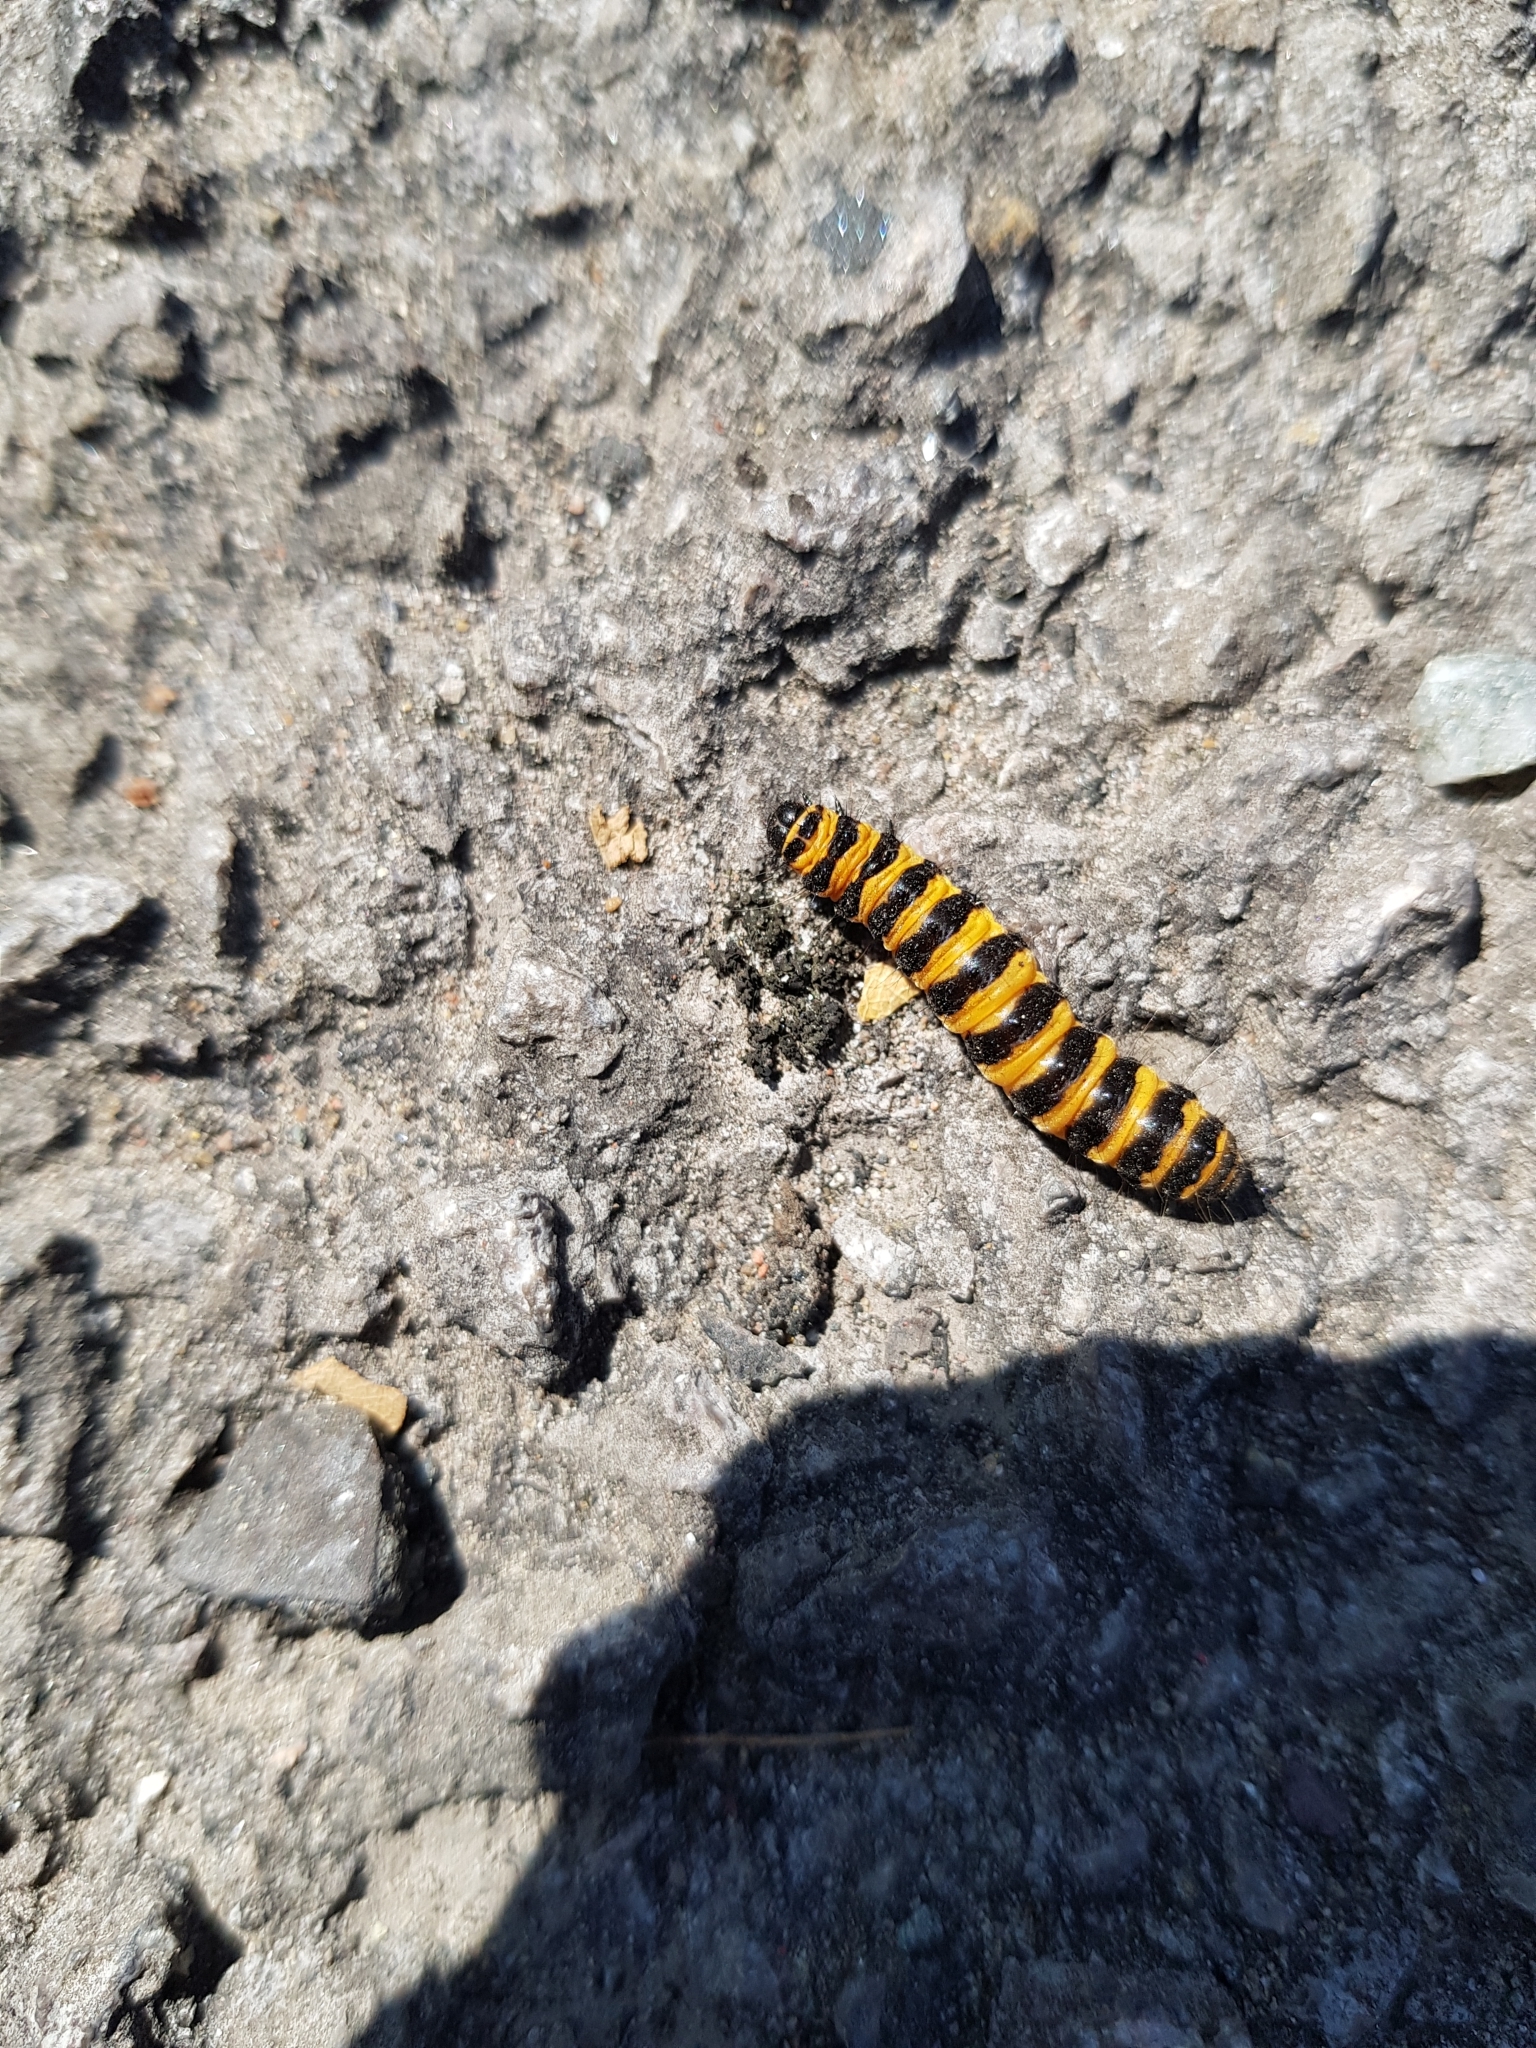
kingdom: Animalia
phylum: Arthropoda
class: Insecta
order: Lepidoptera
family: Erebidae
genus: Tyria
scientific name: Tyria jacobaeae
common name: Cinnabar
